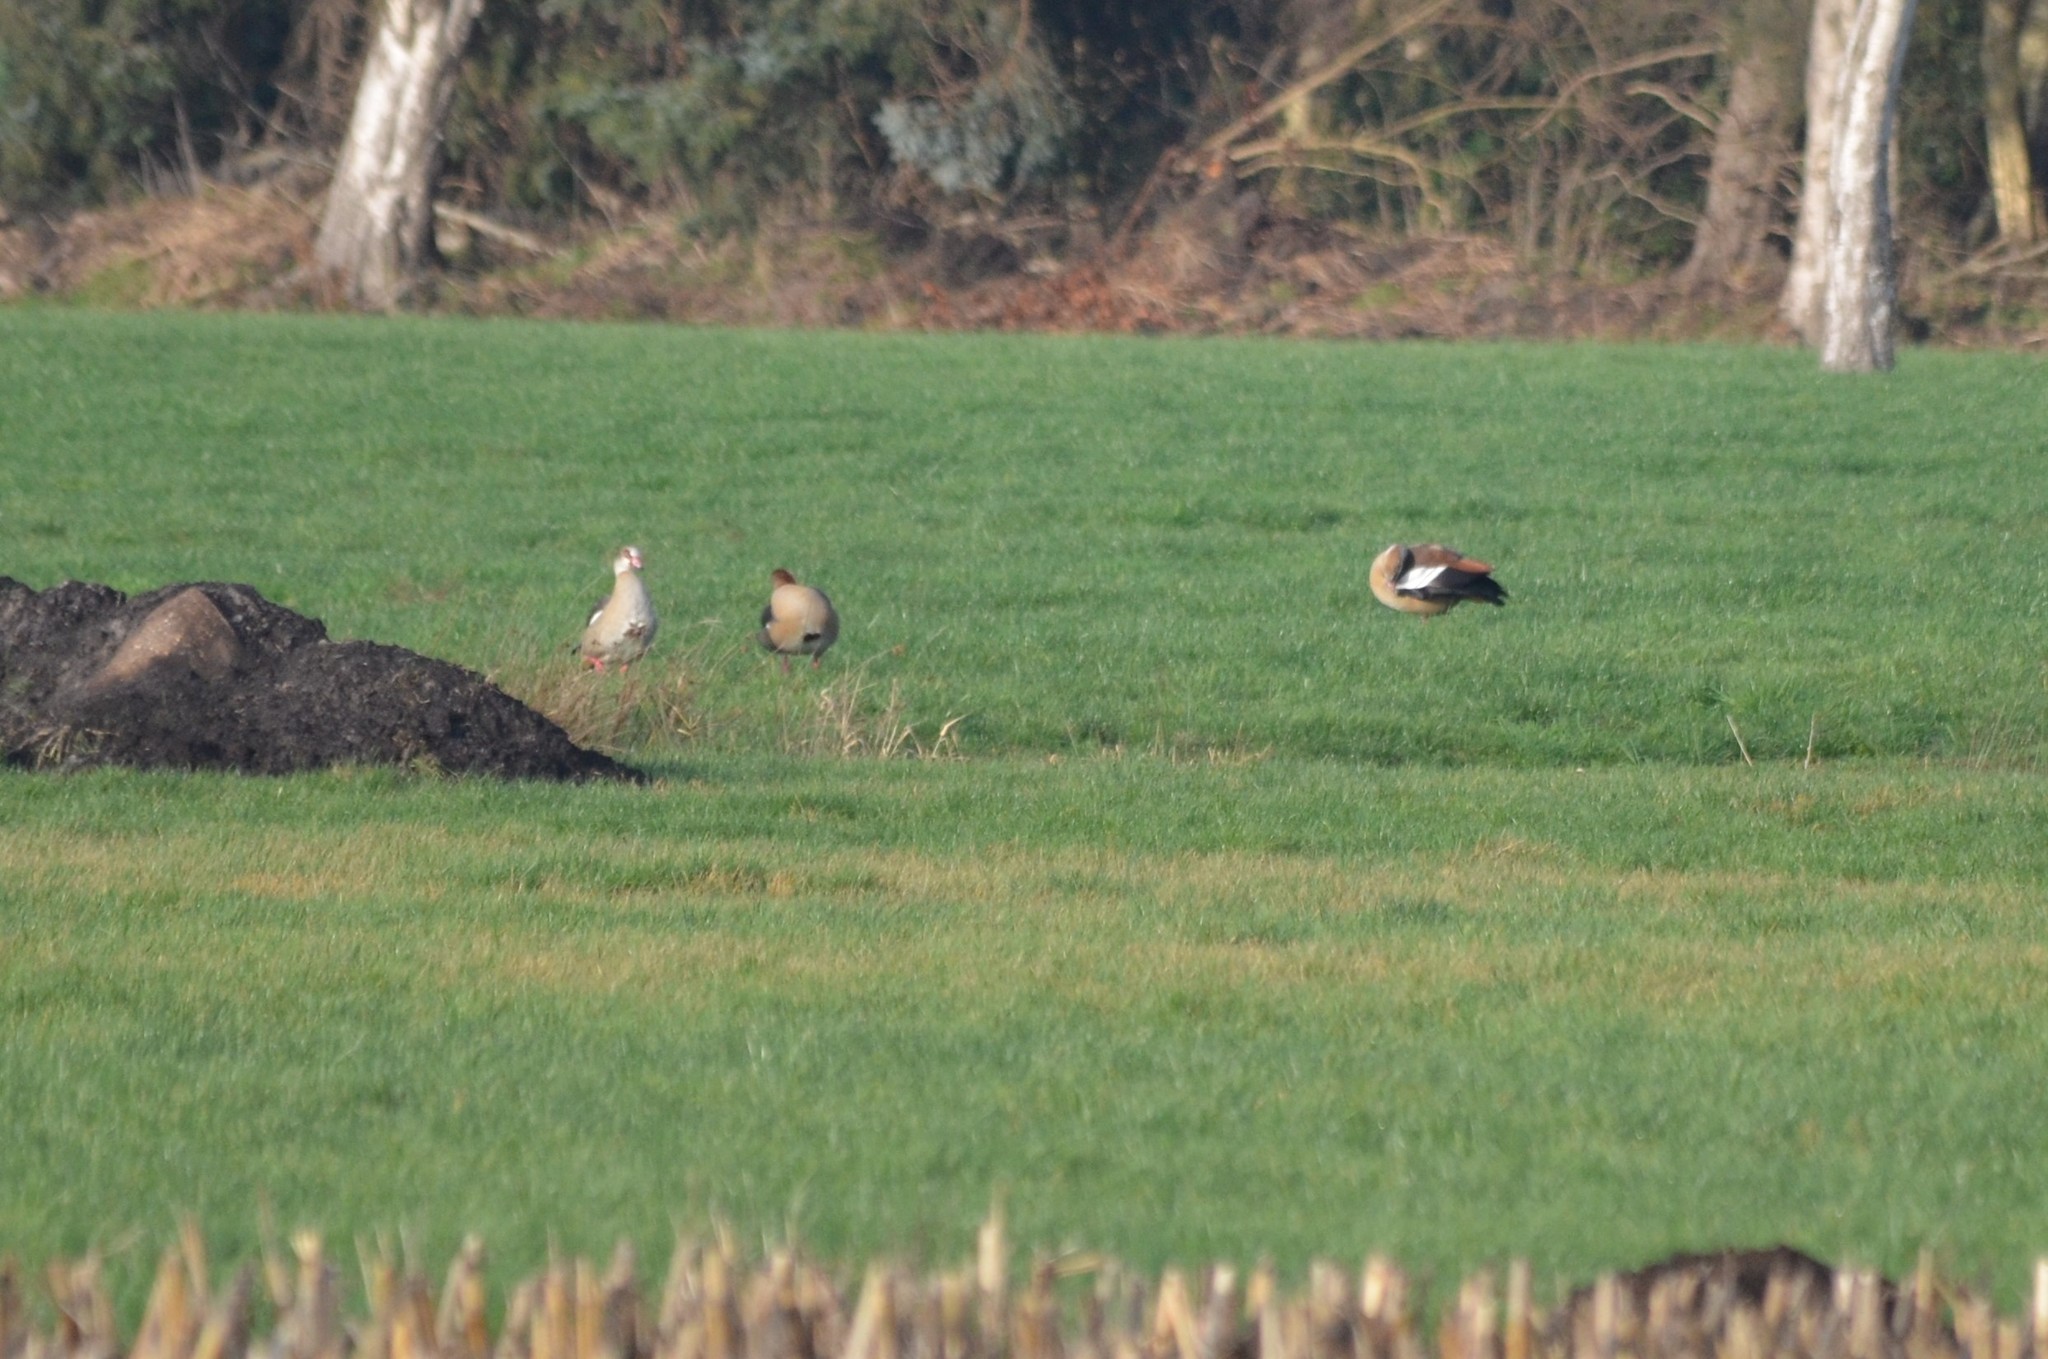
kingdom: Animalia
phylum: Chordata
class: Aves
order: Anseriformes
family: Anatidae
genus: Alopochen
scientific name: Alopochen aegyptiaca
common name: Egyptian goose
